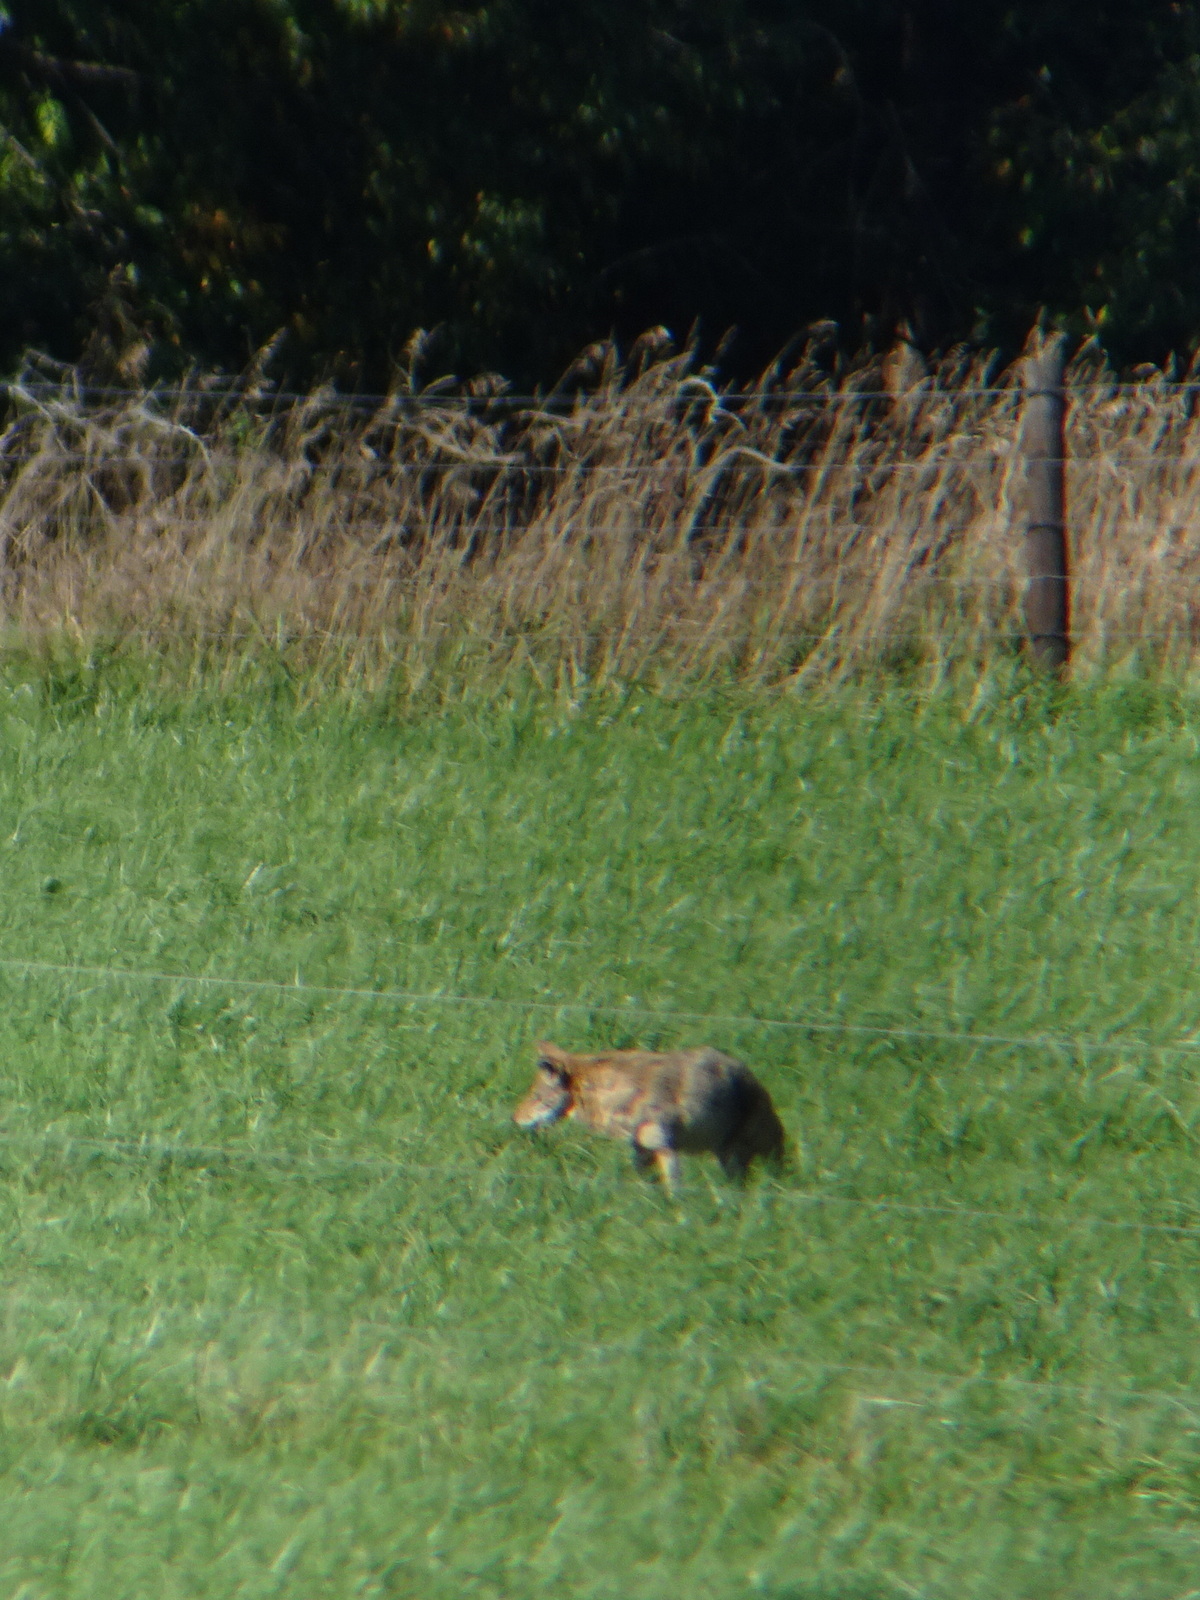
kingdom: Animalia
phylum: Chordata
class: Mammalia
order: Carnivora
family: Canidae
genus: Canis
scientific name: Canis latrans
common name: Coyote
